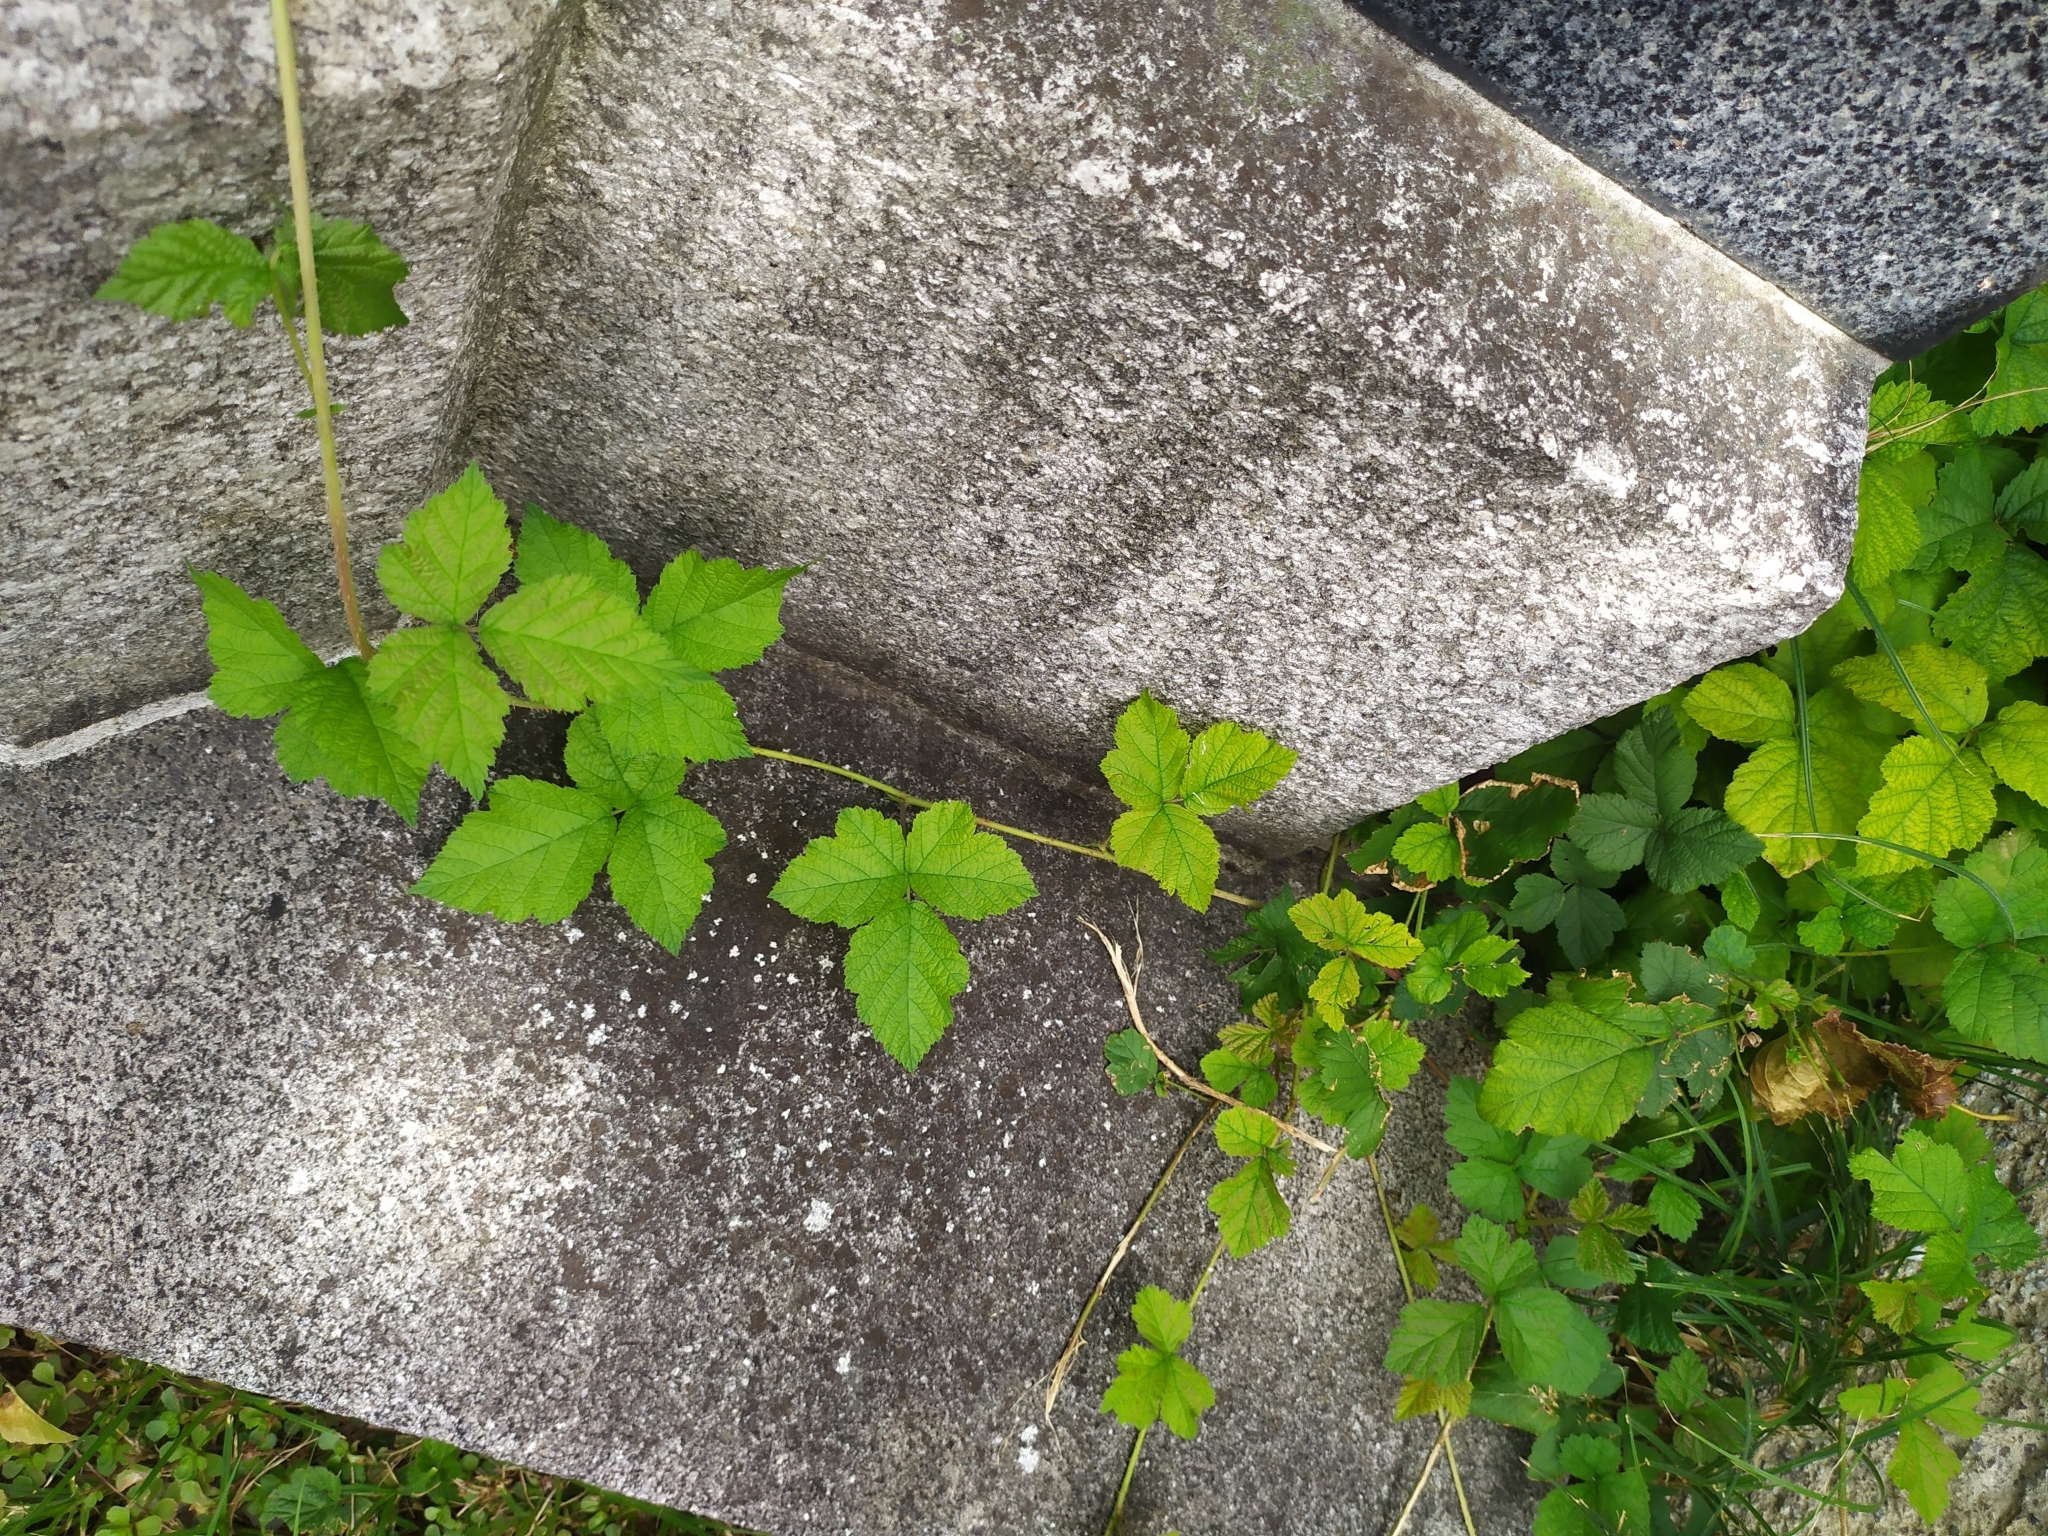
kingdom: Plantae
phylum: Tracheophyta
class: Magnoliopsida
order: Rosales
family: Rosaceae
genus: Rubus
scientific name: Rubus caesius
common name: Dewberry
